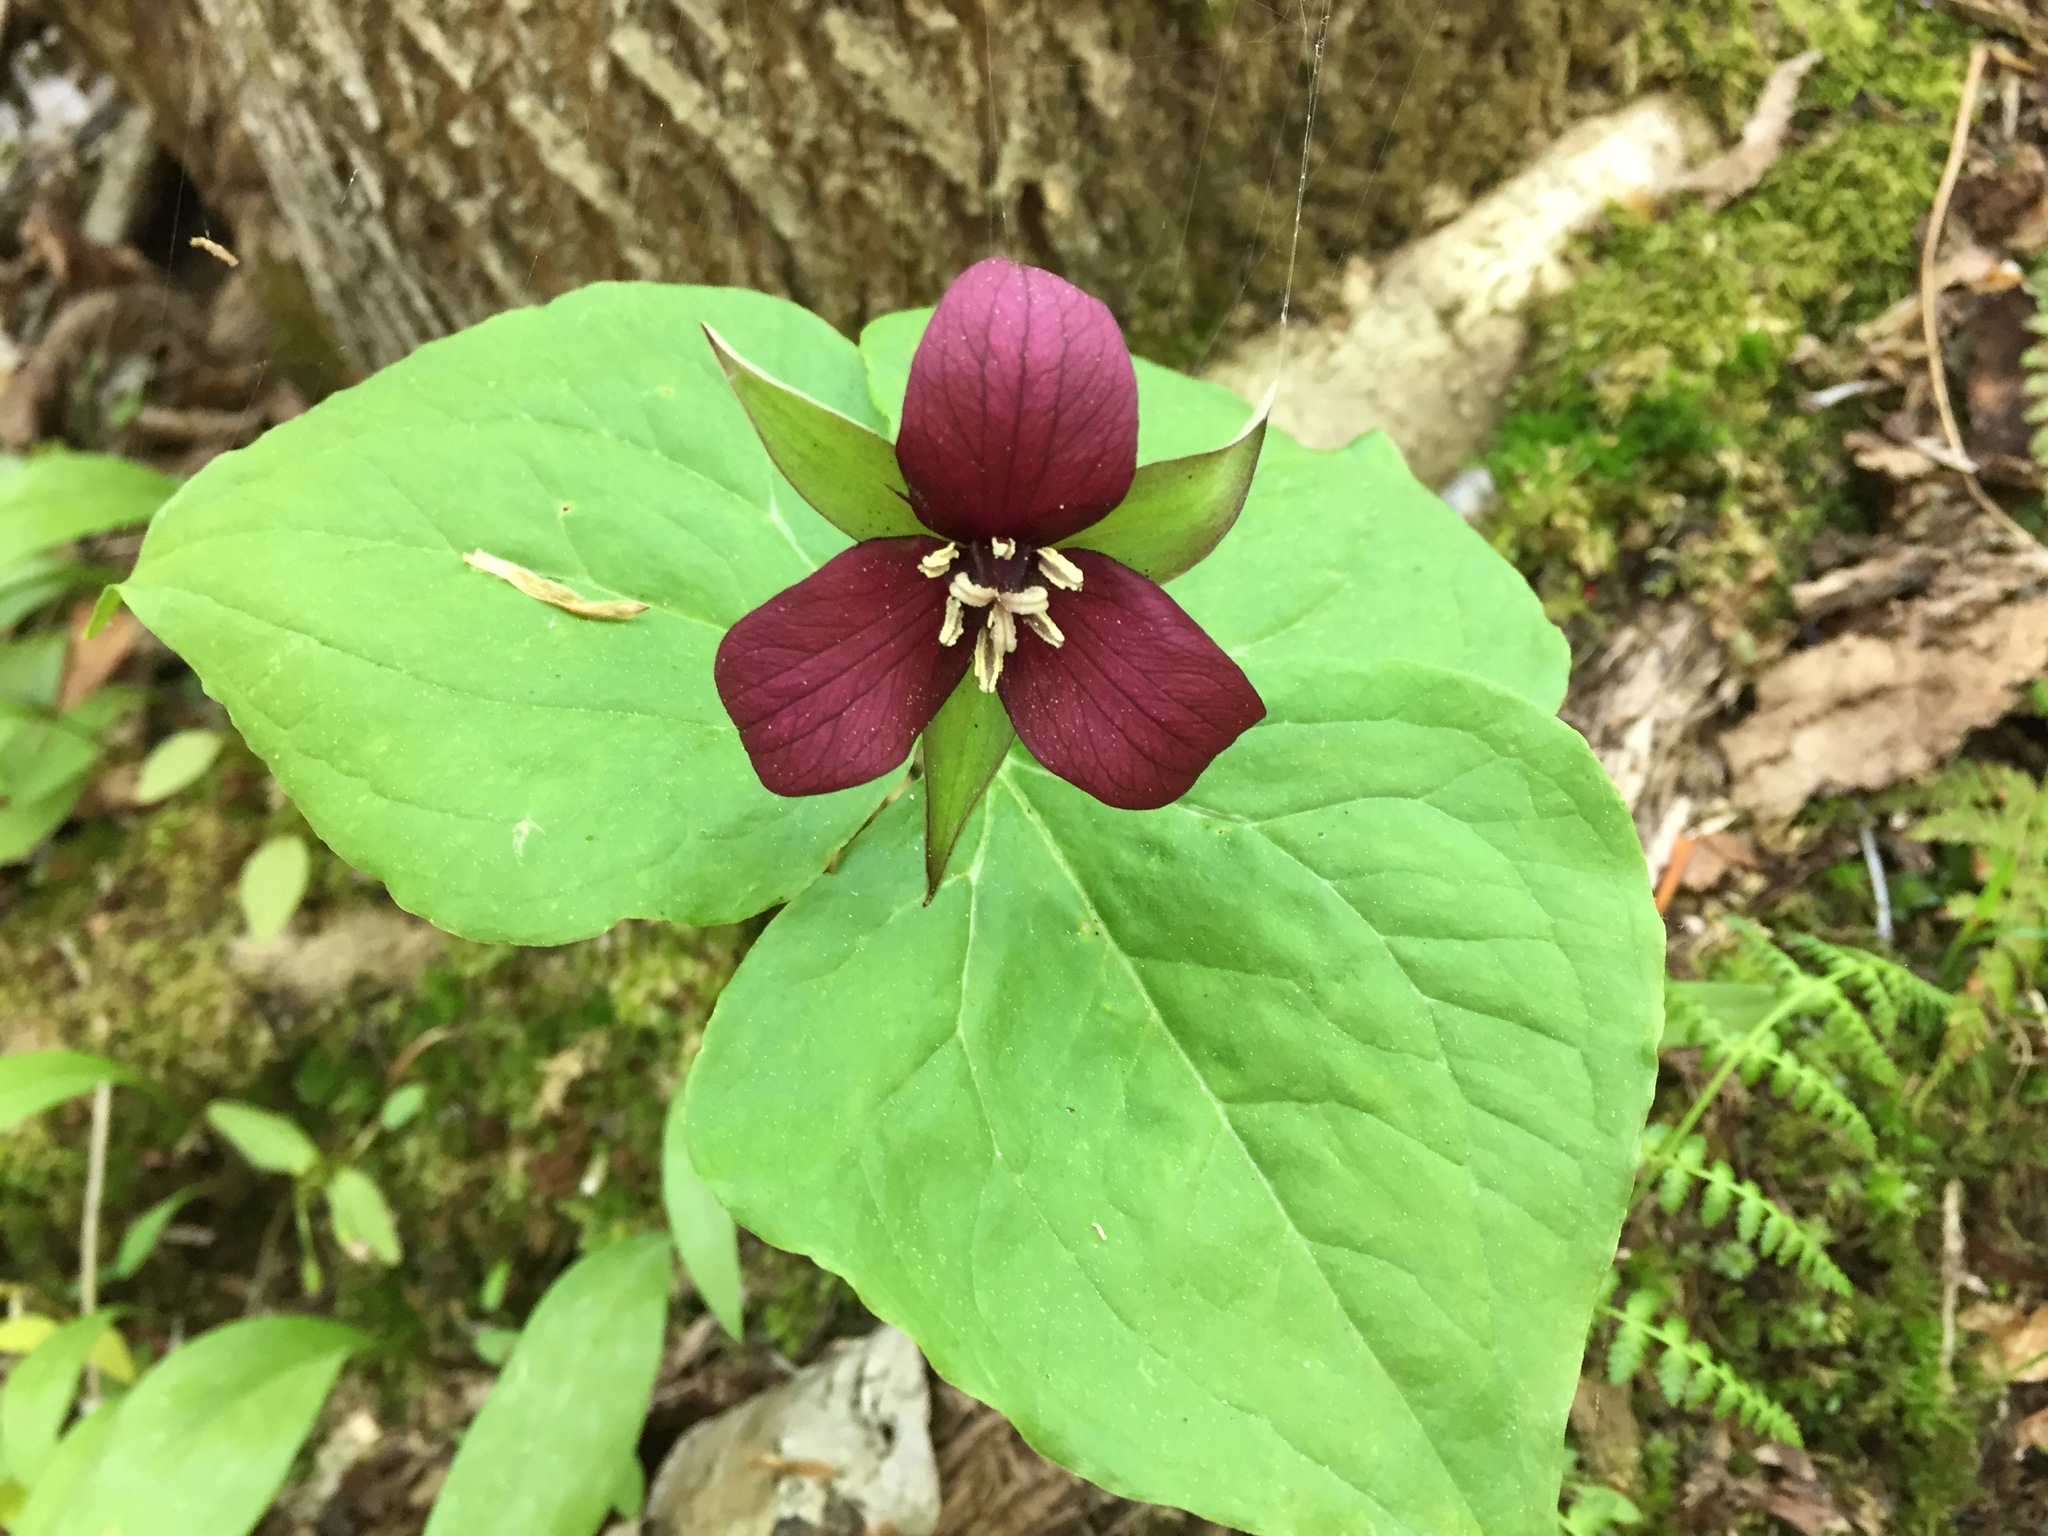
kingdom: Plantae
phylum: Tracheophyta
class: Liliopsida
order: Liliales
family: Melanthiaceae
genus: Trillium
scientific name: Trillium erectum
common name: Purple trillium
